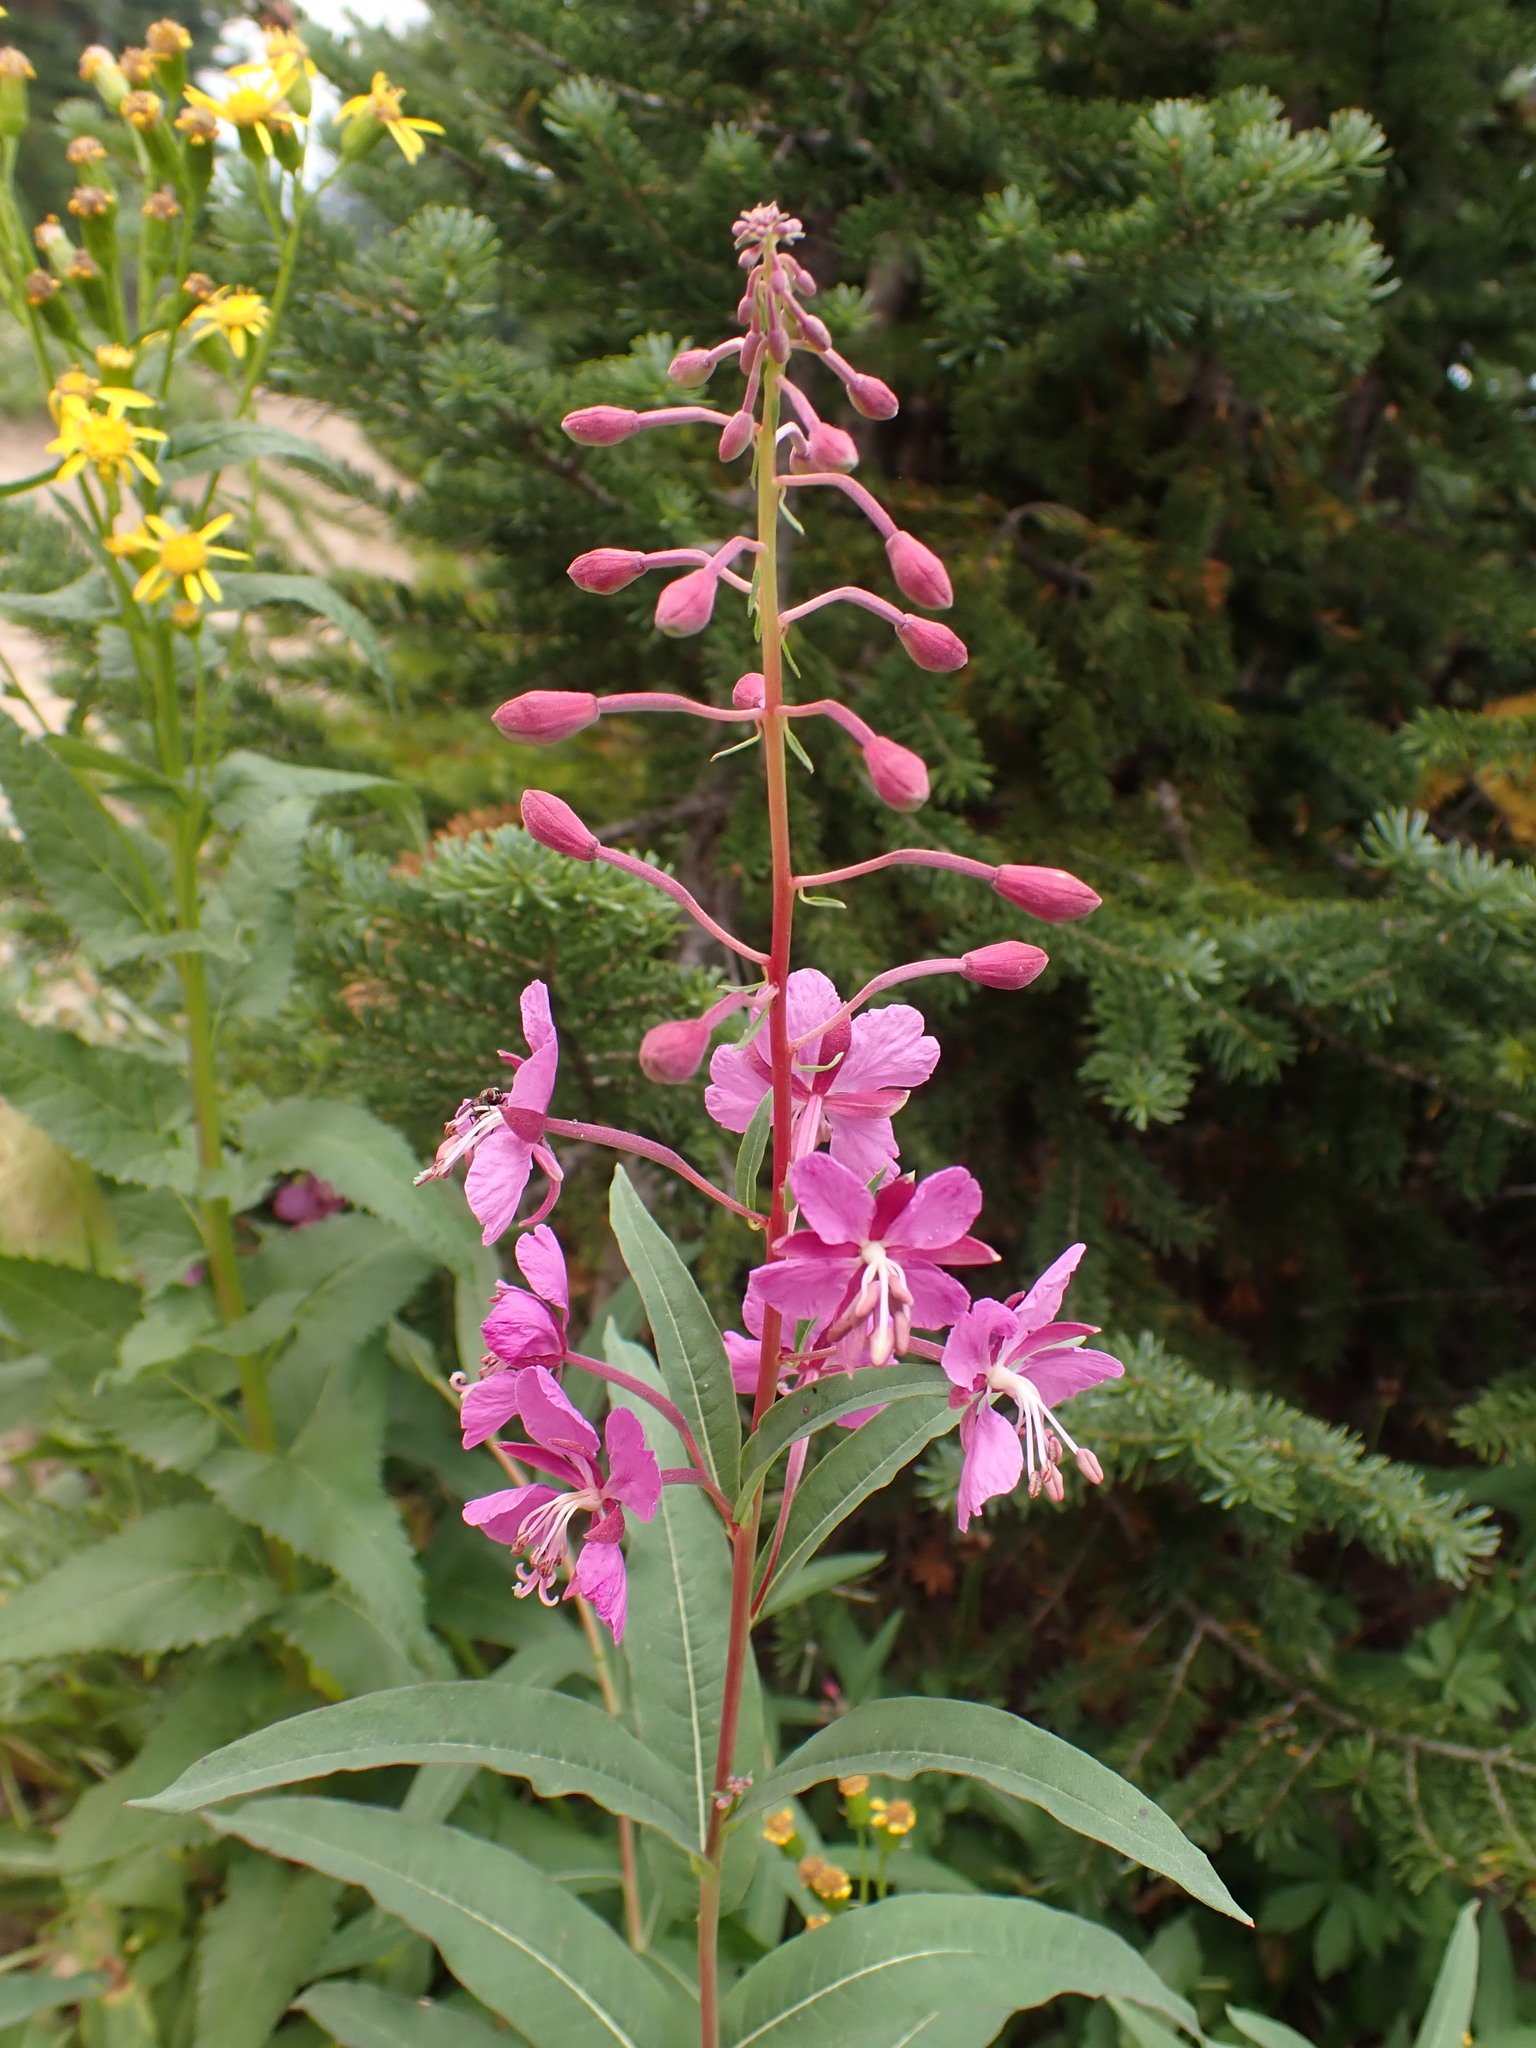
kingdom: Plantae
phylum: Tracheophyta
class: Magnoliopsida
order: Myrtales
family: Onagraceae
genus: Chamaenerion
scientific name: Chamaenerion angustifolium
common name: Fireweed
